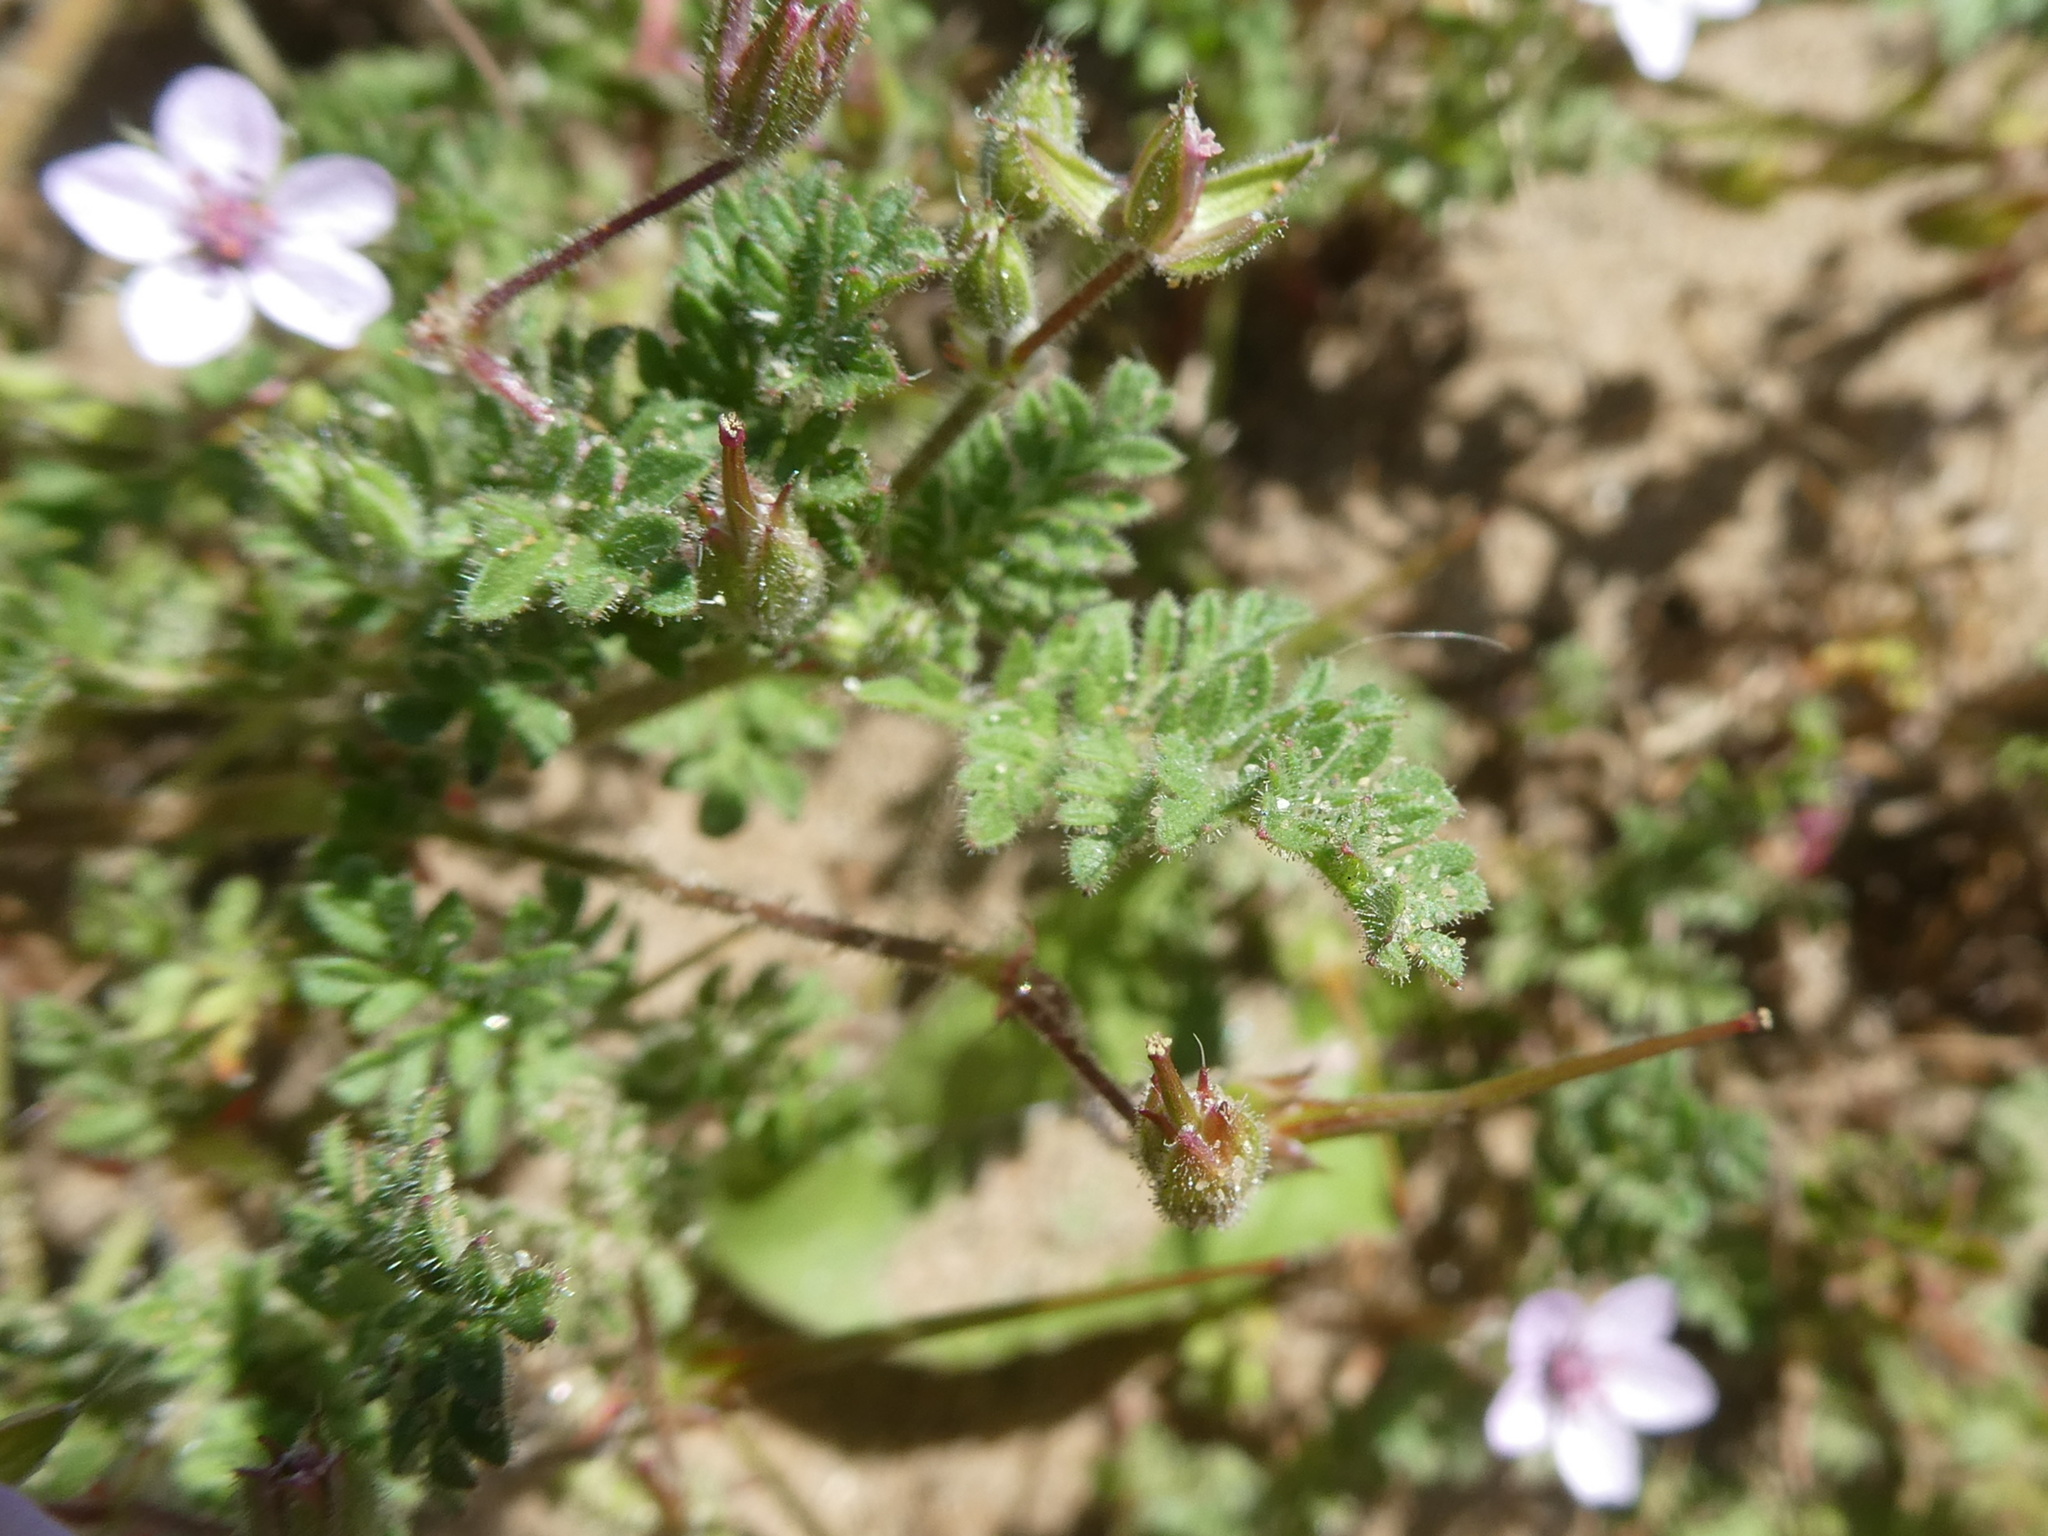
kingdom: Plantae
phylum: Tracheophyta
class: Magnoliopsida
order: Geraniales
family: Geraniaceae
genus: Erodium
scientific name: Erodium lebelii
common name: Sticky stork's-bill
